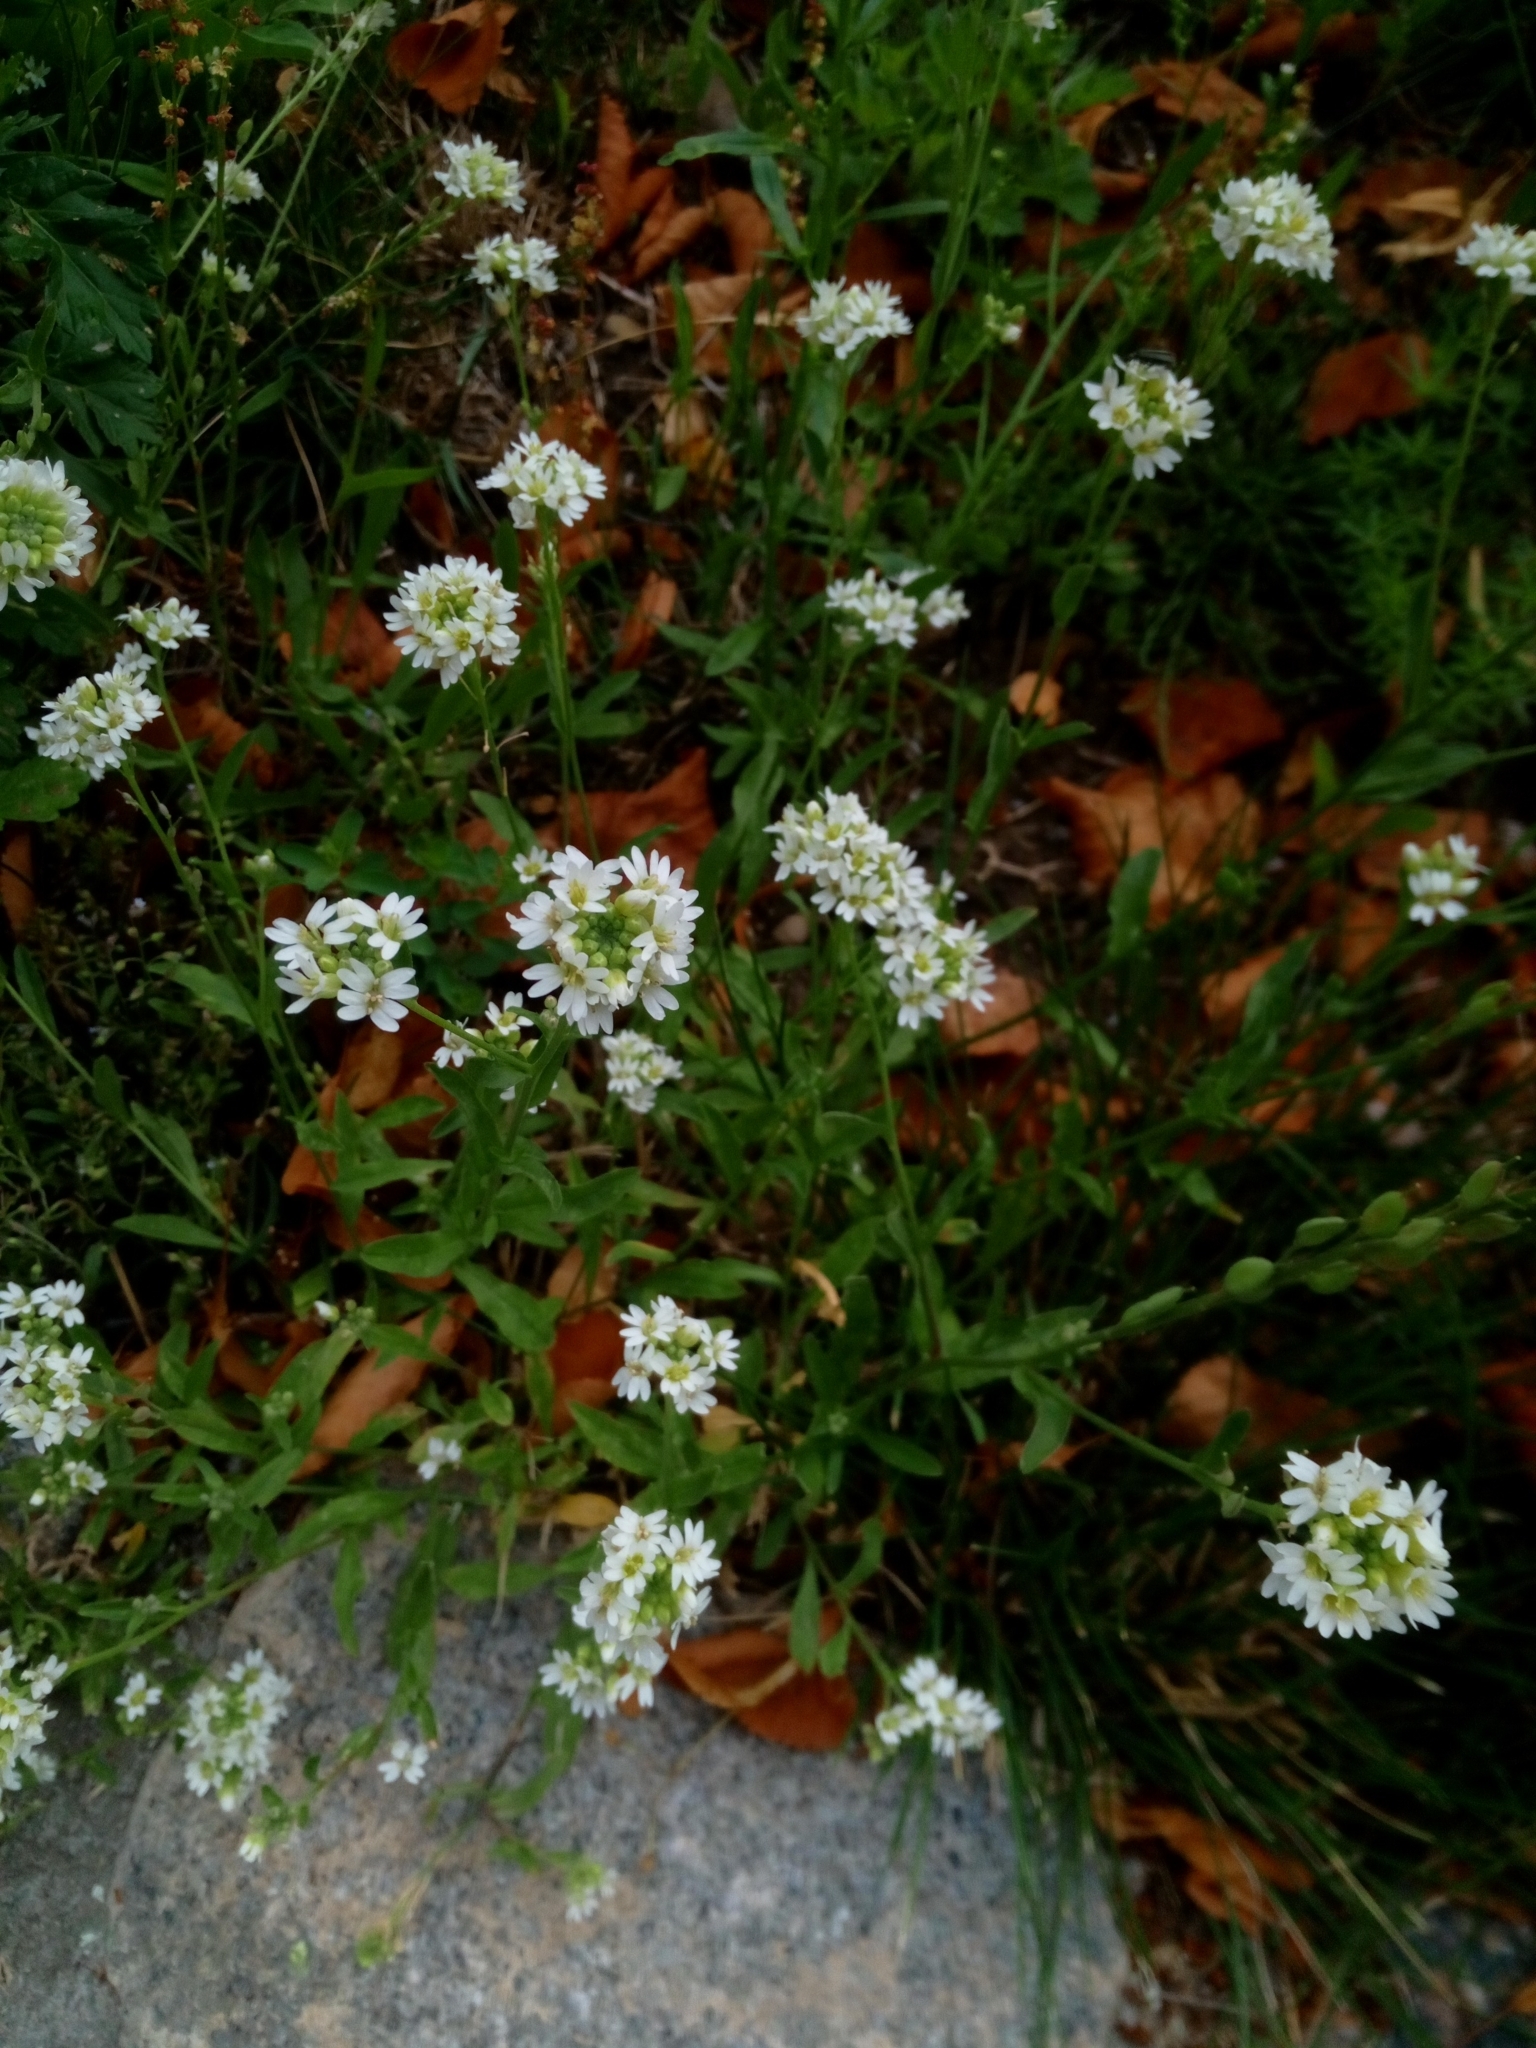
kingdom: Plantae
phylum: Tracheophyta
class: Magnoliopsida
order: Brassicales
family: Brassicaceae
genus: Berteroa
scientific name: Berteroa incana
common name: Hoary alison
